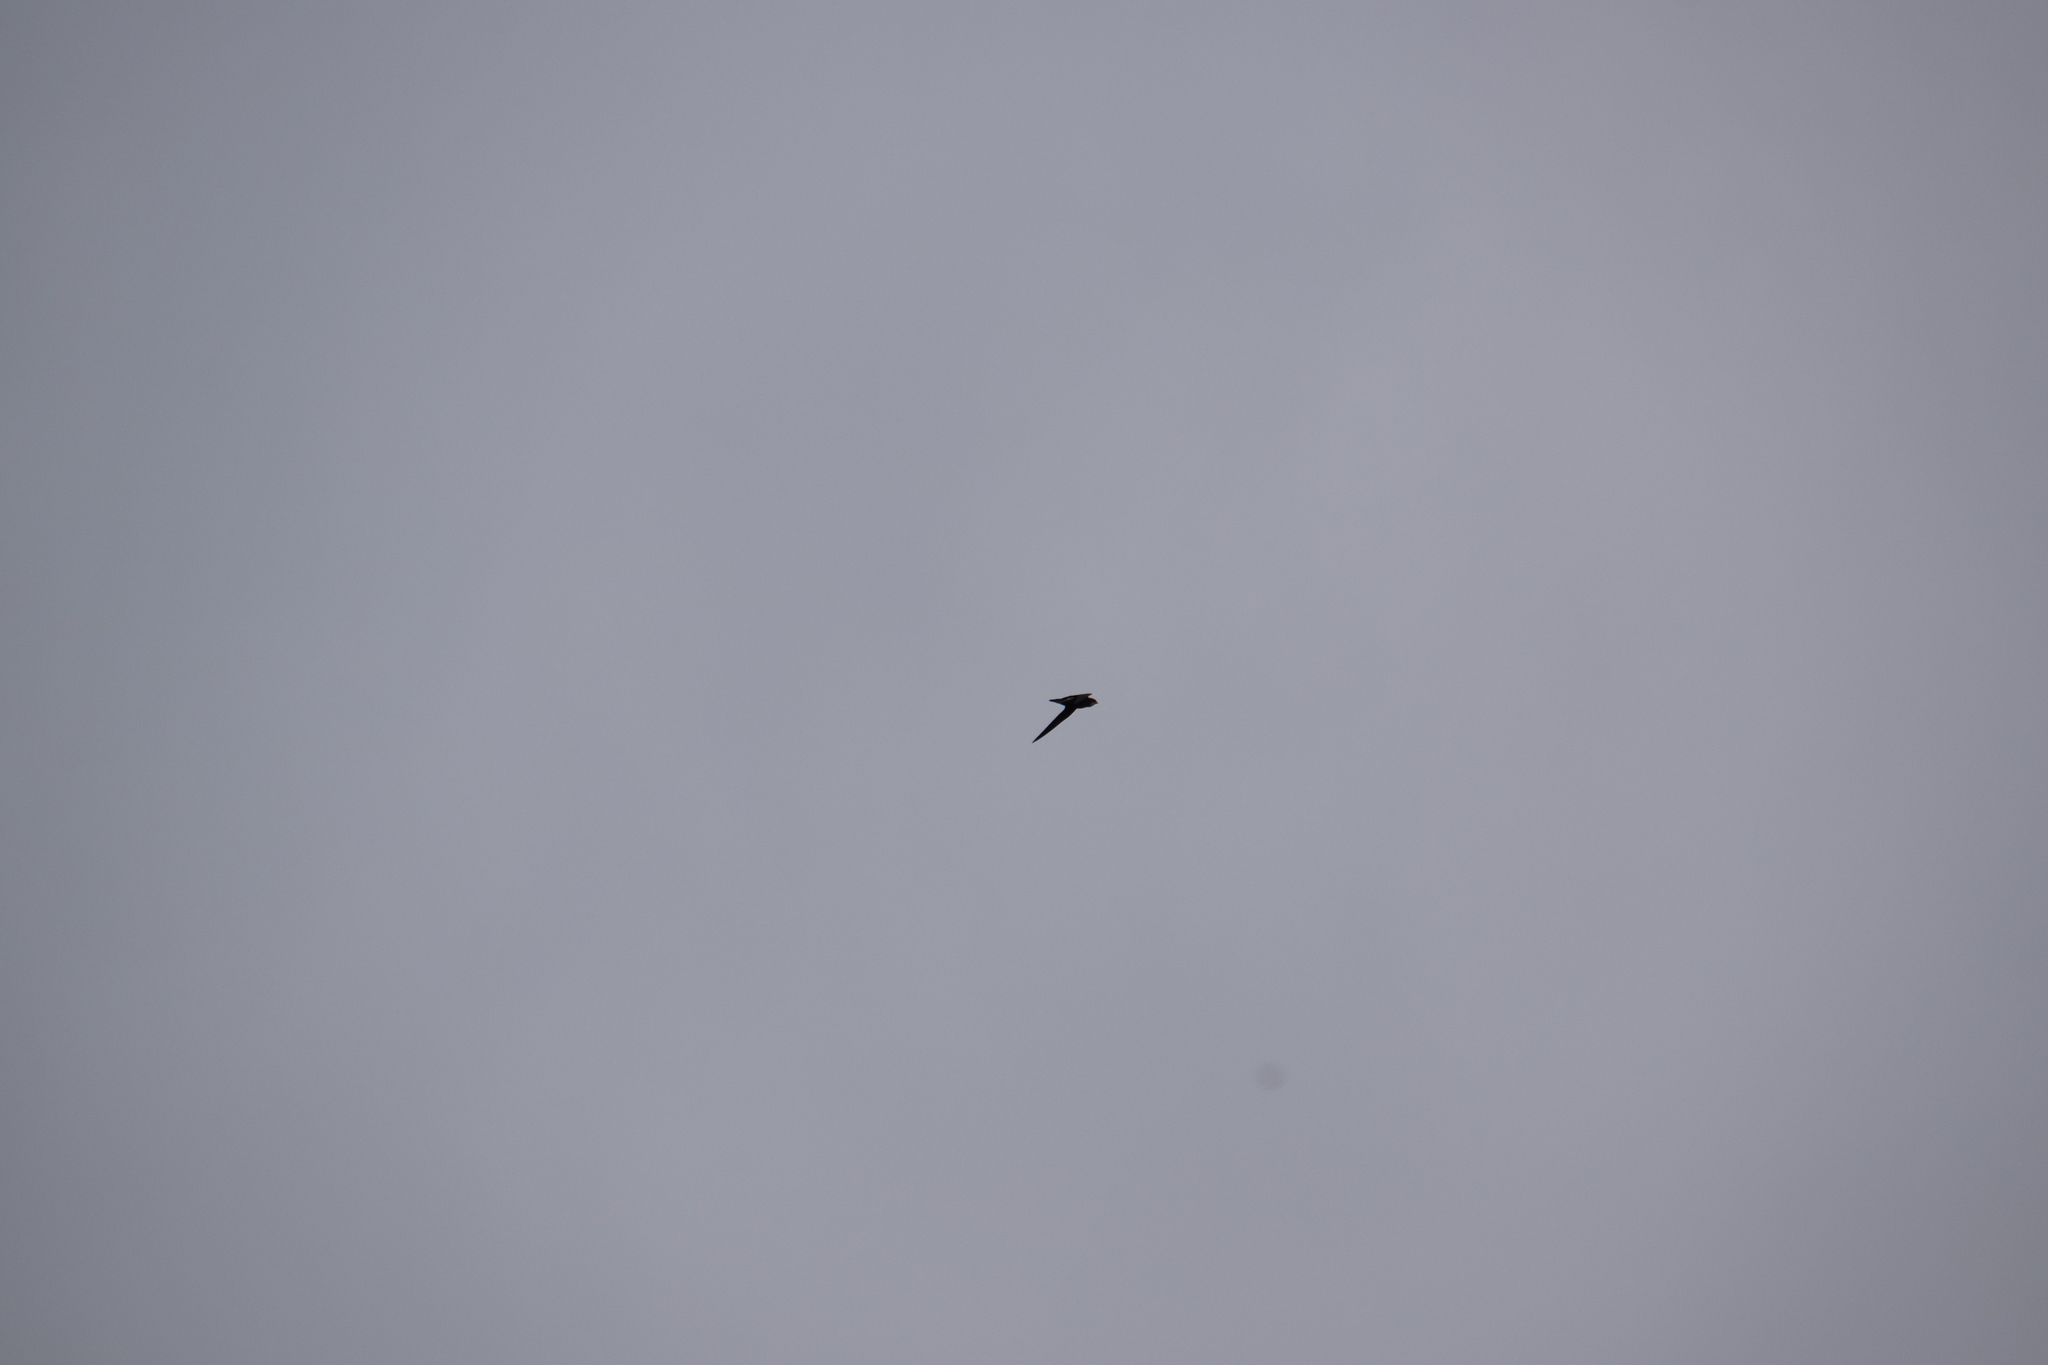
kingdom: Animalia
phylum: Chordata
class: Aves
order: Apodiformes
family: Apodidae
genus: Hirundapus
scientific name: Hirundapus caudacutus
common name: White-throated needletail
